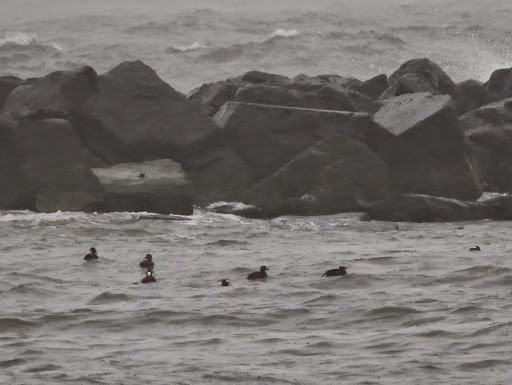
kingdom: Animalia
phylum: Chordata
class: Aves
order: Anseriformes
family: Anatidae
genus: Melanitta
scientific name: Melanitta perspicillata
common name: Surf scoter
